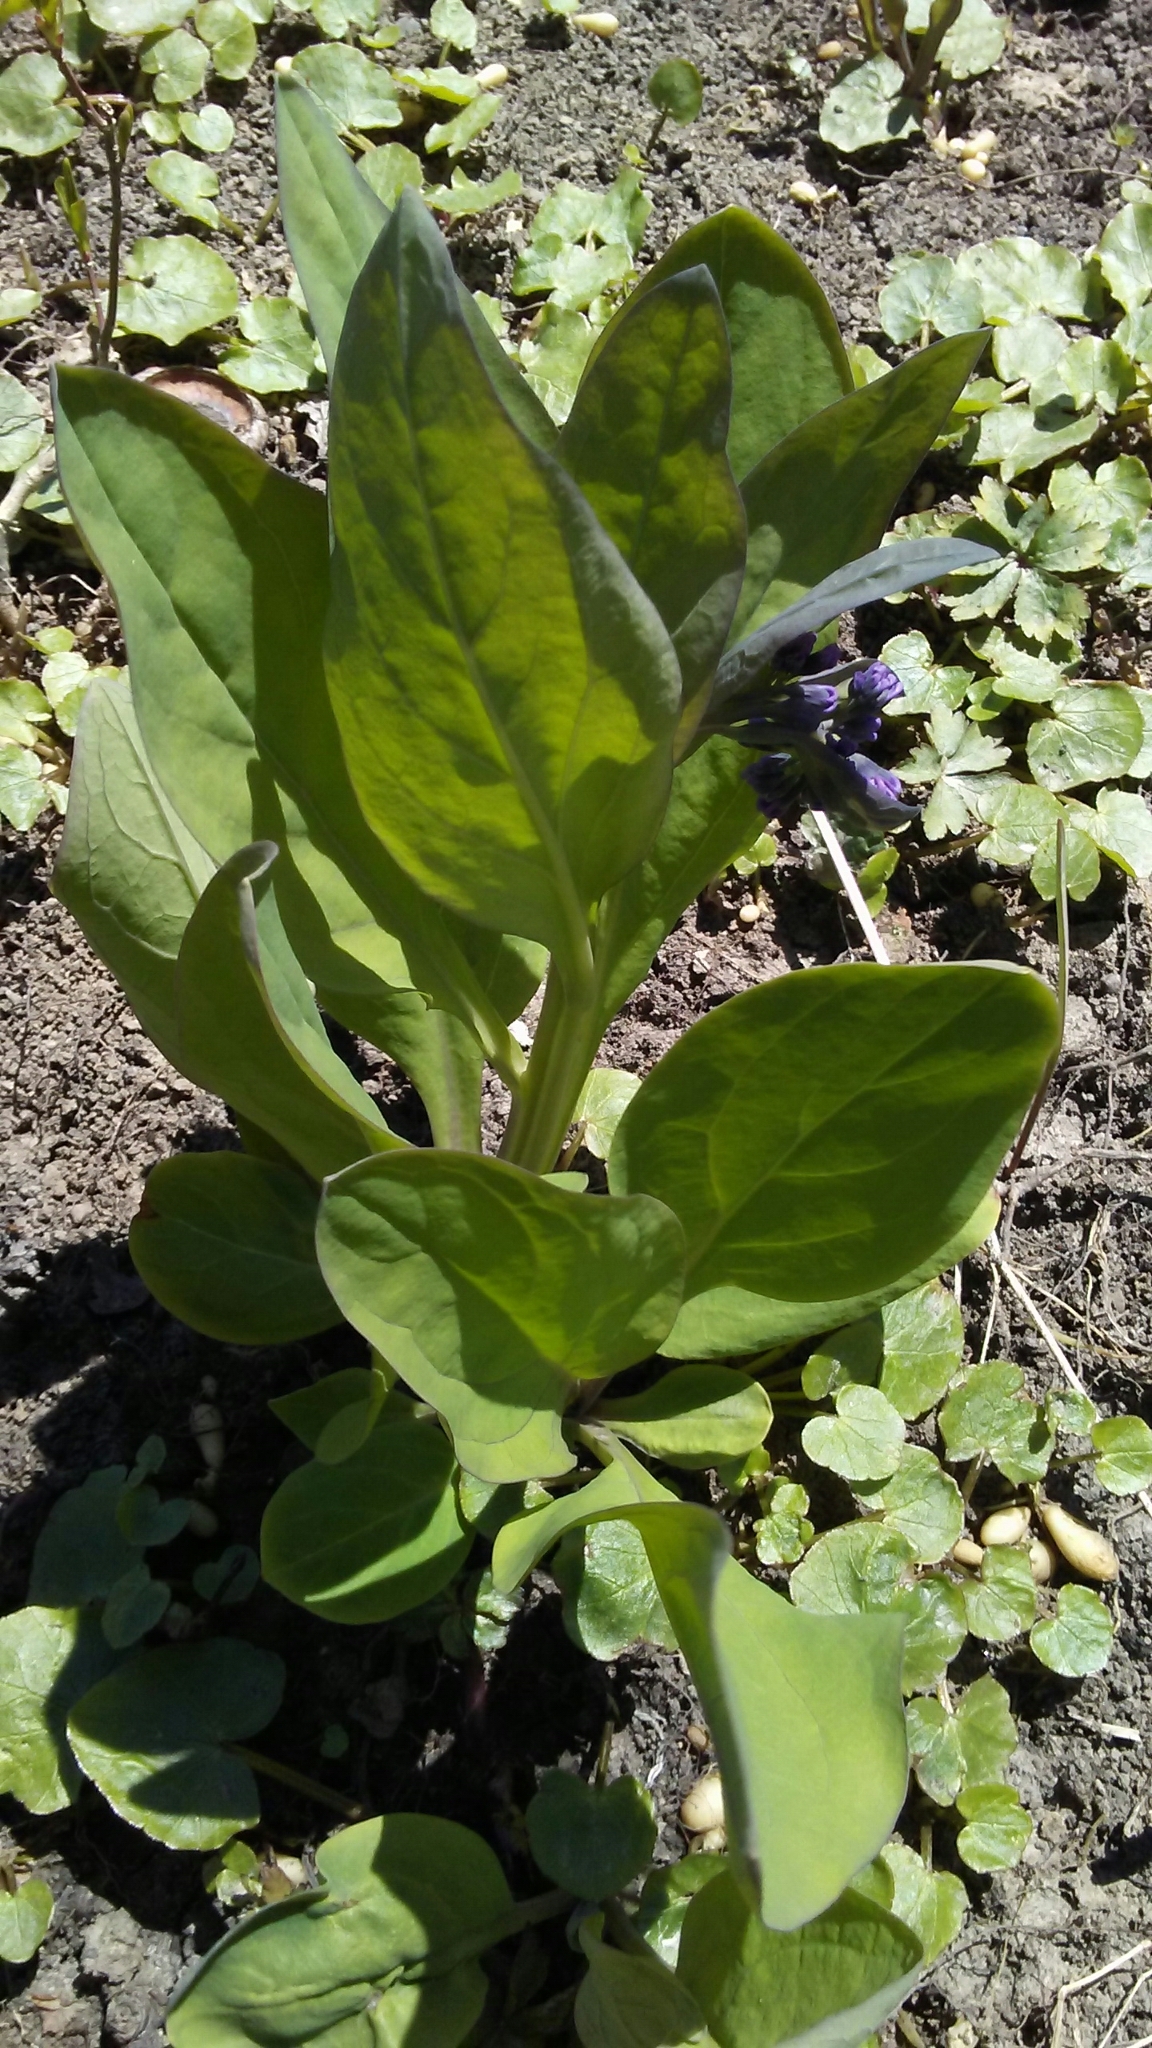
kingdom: Plantae
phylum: Tracheophyta
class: Magnoliopsida
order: Boraginales
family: Boraginaceae
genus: Mertensia
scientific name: Mertensia virginica
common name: Virginia bluebells
